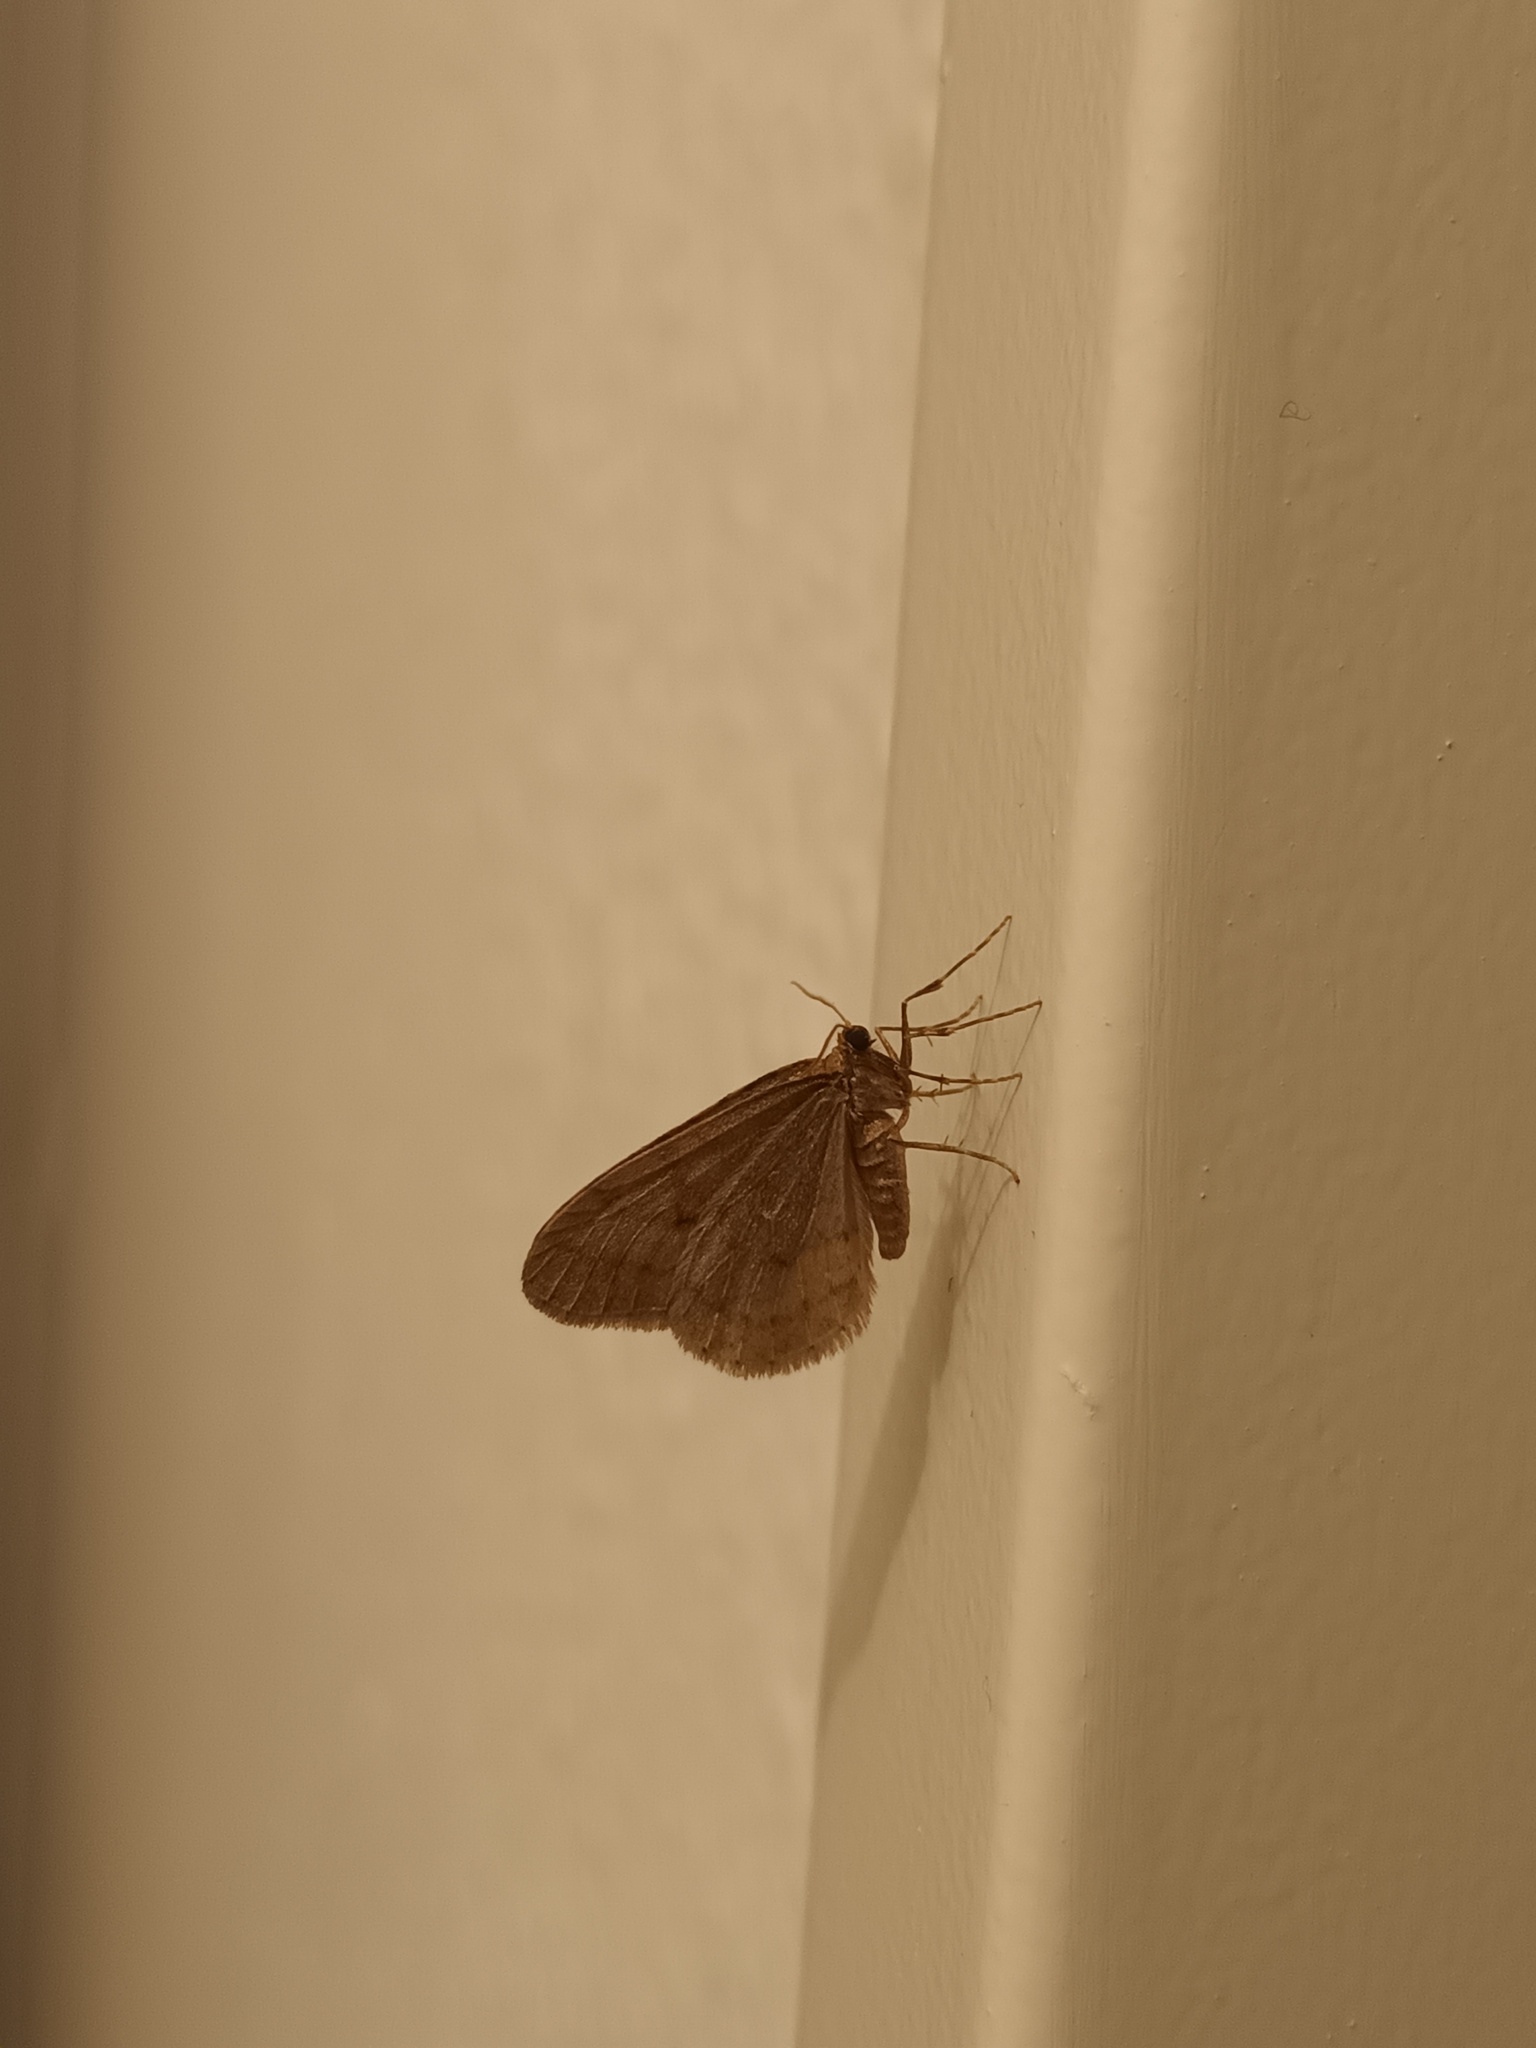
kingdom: Animalia
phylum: Arthropoda
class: Insecta
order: Lepidoptera
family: Geometridae
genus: Operophtera
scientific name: Operophtera brumata
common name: Winter moth
